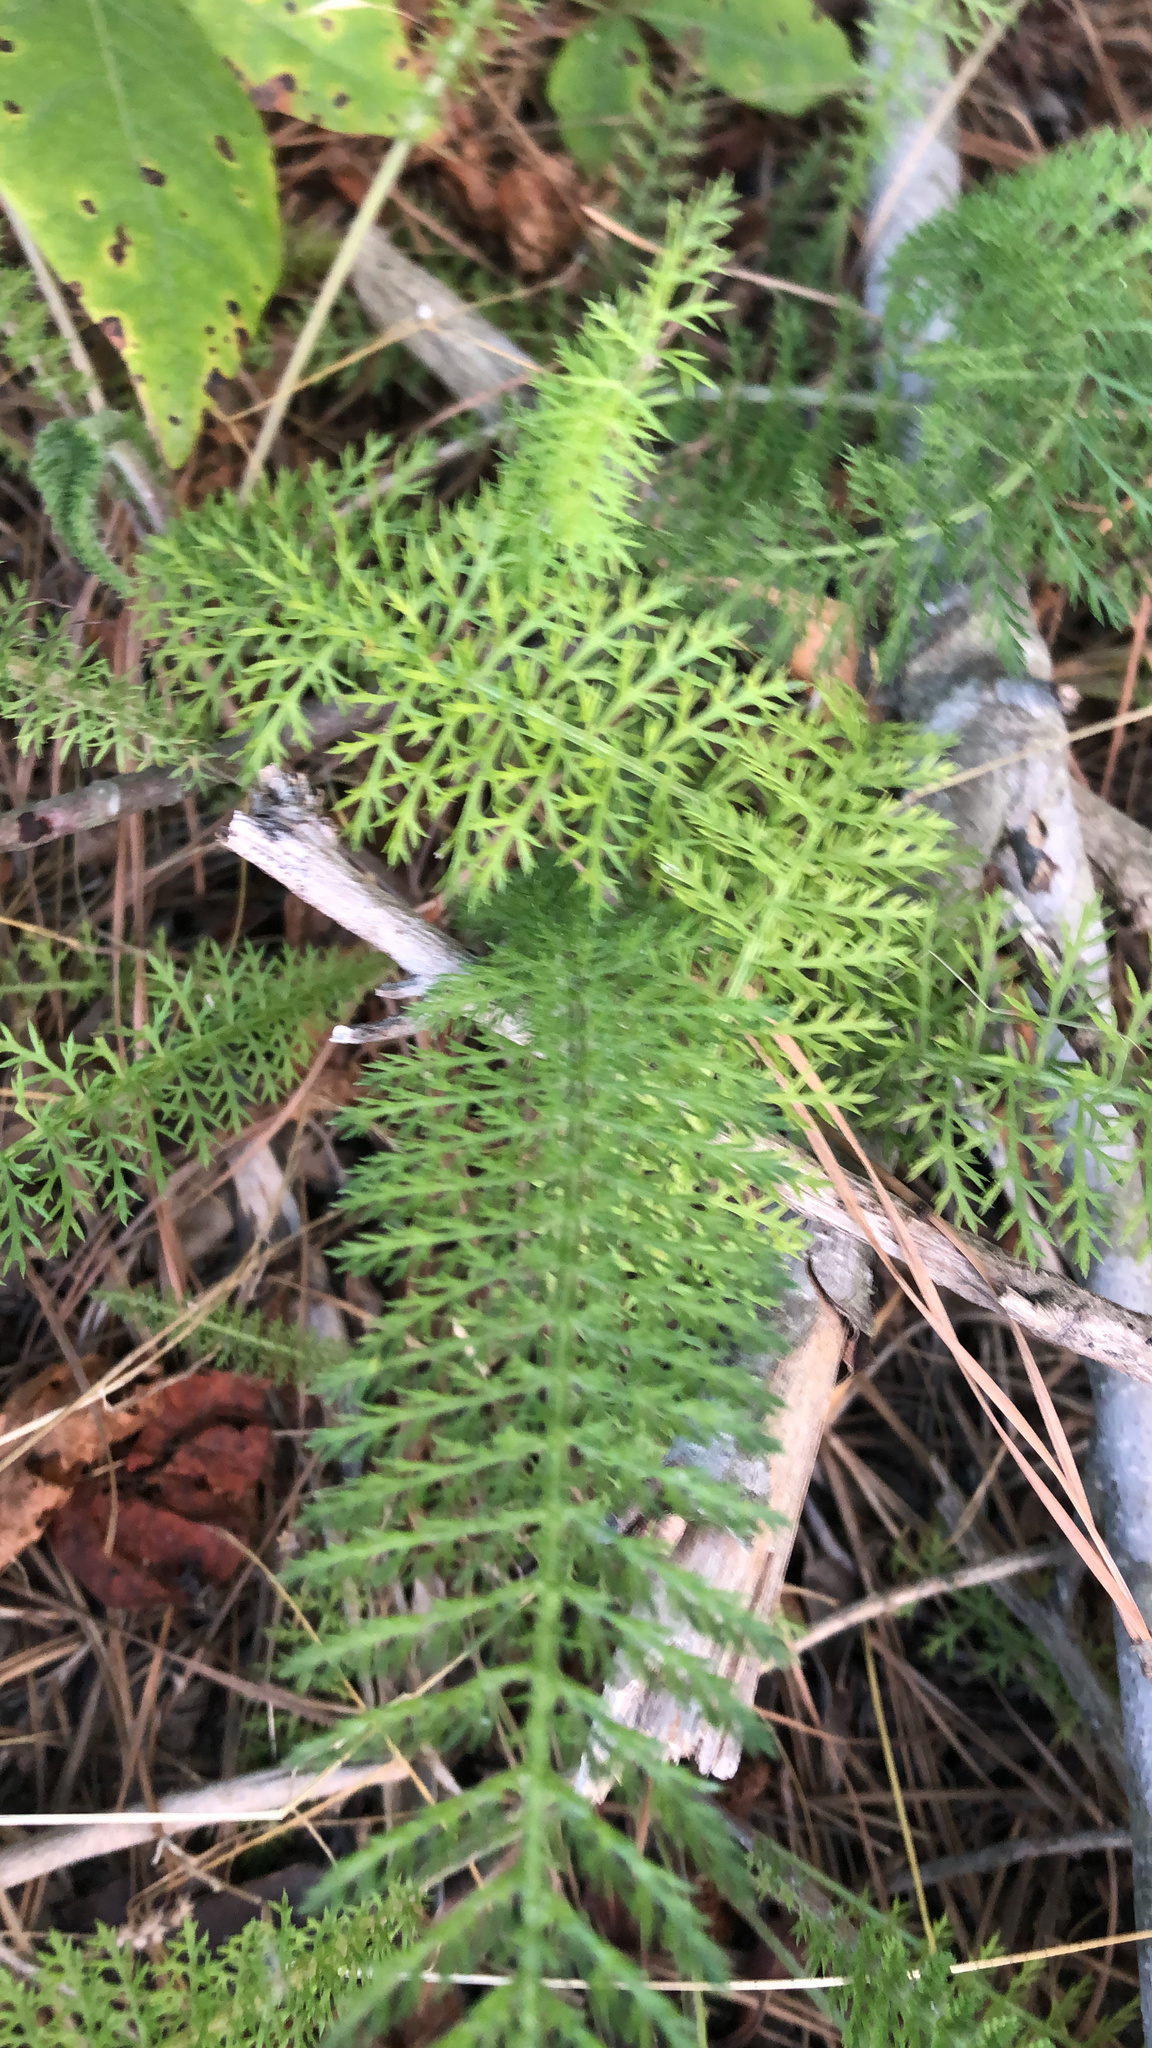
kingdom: Plantae
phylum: Tracheophyta
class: Magnoliopsida
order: Asterales
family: Asteraceae
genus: Achillea
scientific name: Achillea millefolium
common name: Yarrow
